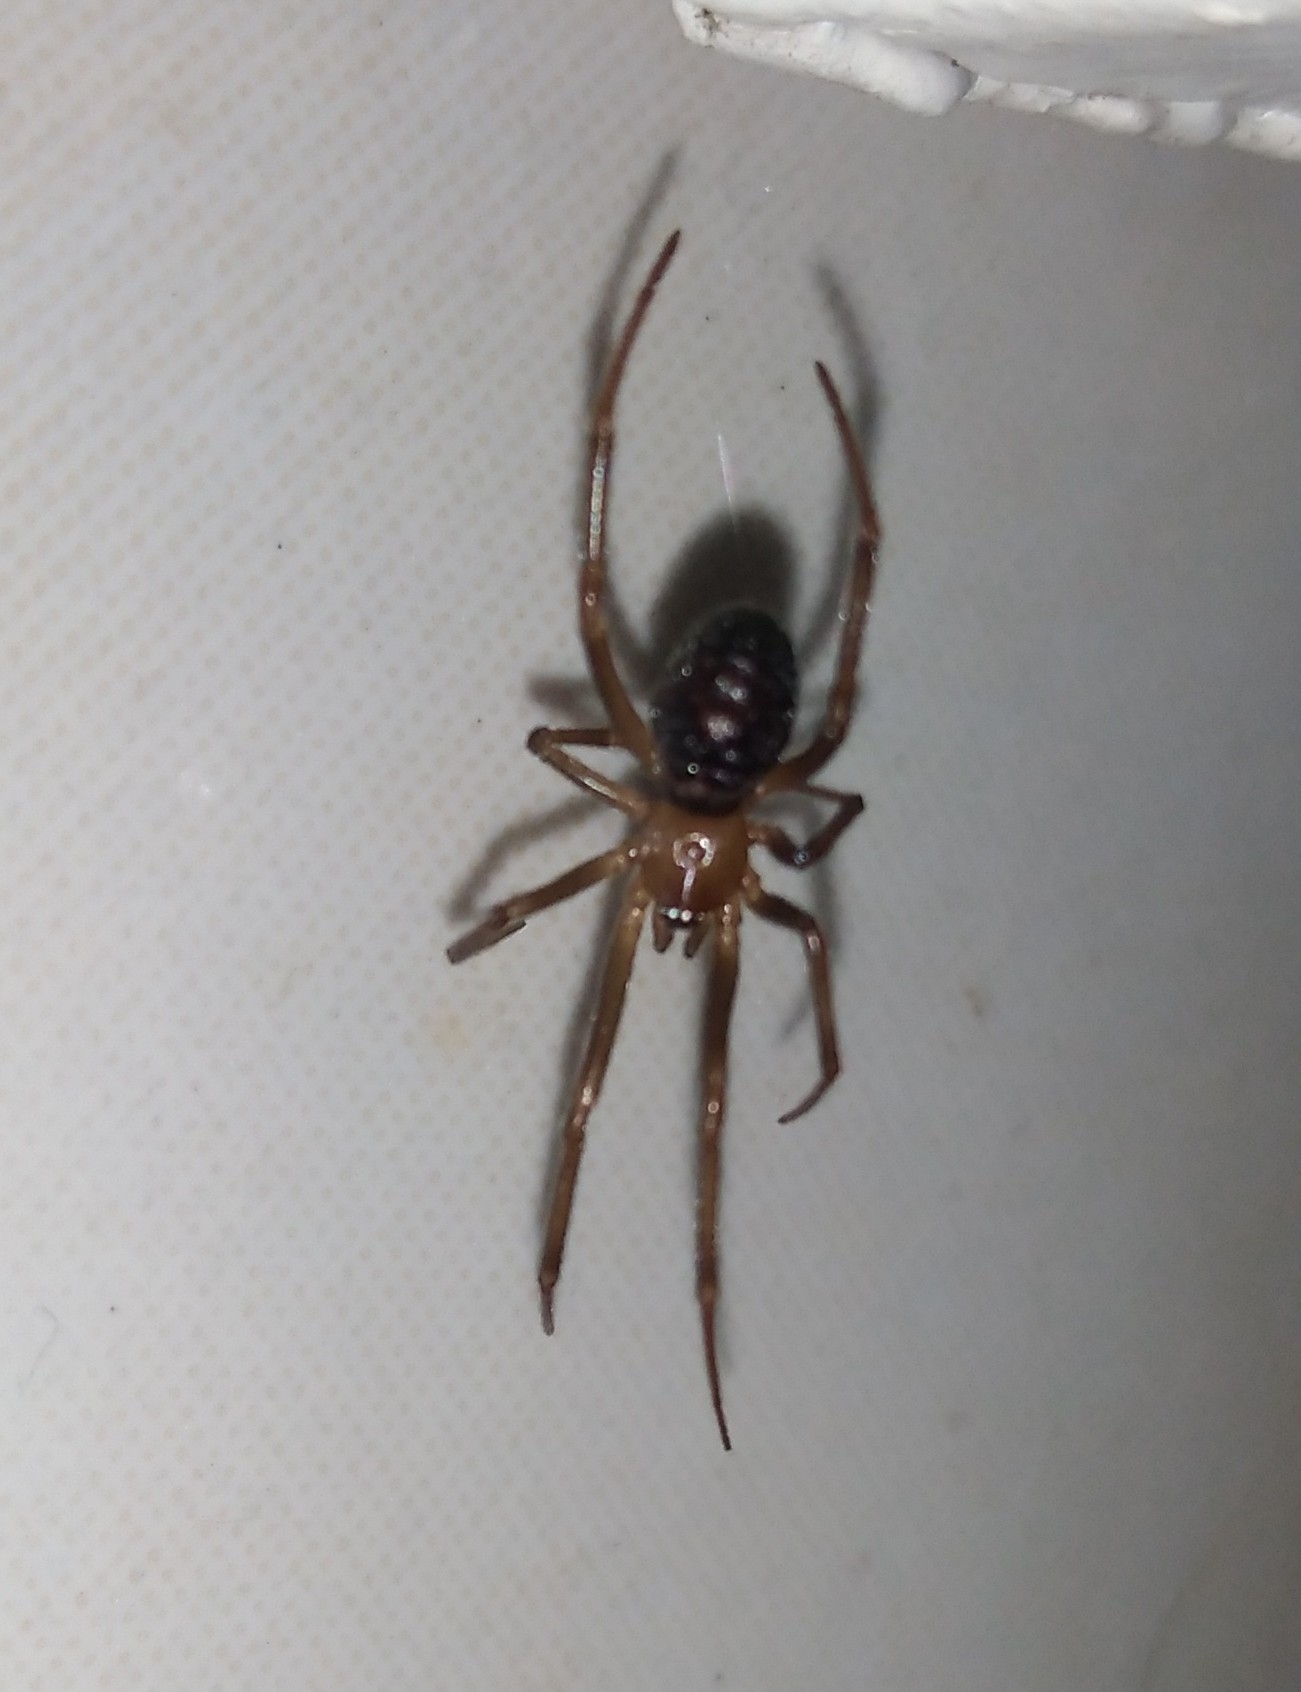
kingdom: Animalia
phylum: Arthropoda
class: Arachnida
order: Araneae
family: Theridiidae
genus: Steatoda
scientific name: Steatoda grossa
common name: False black widow
